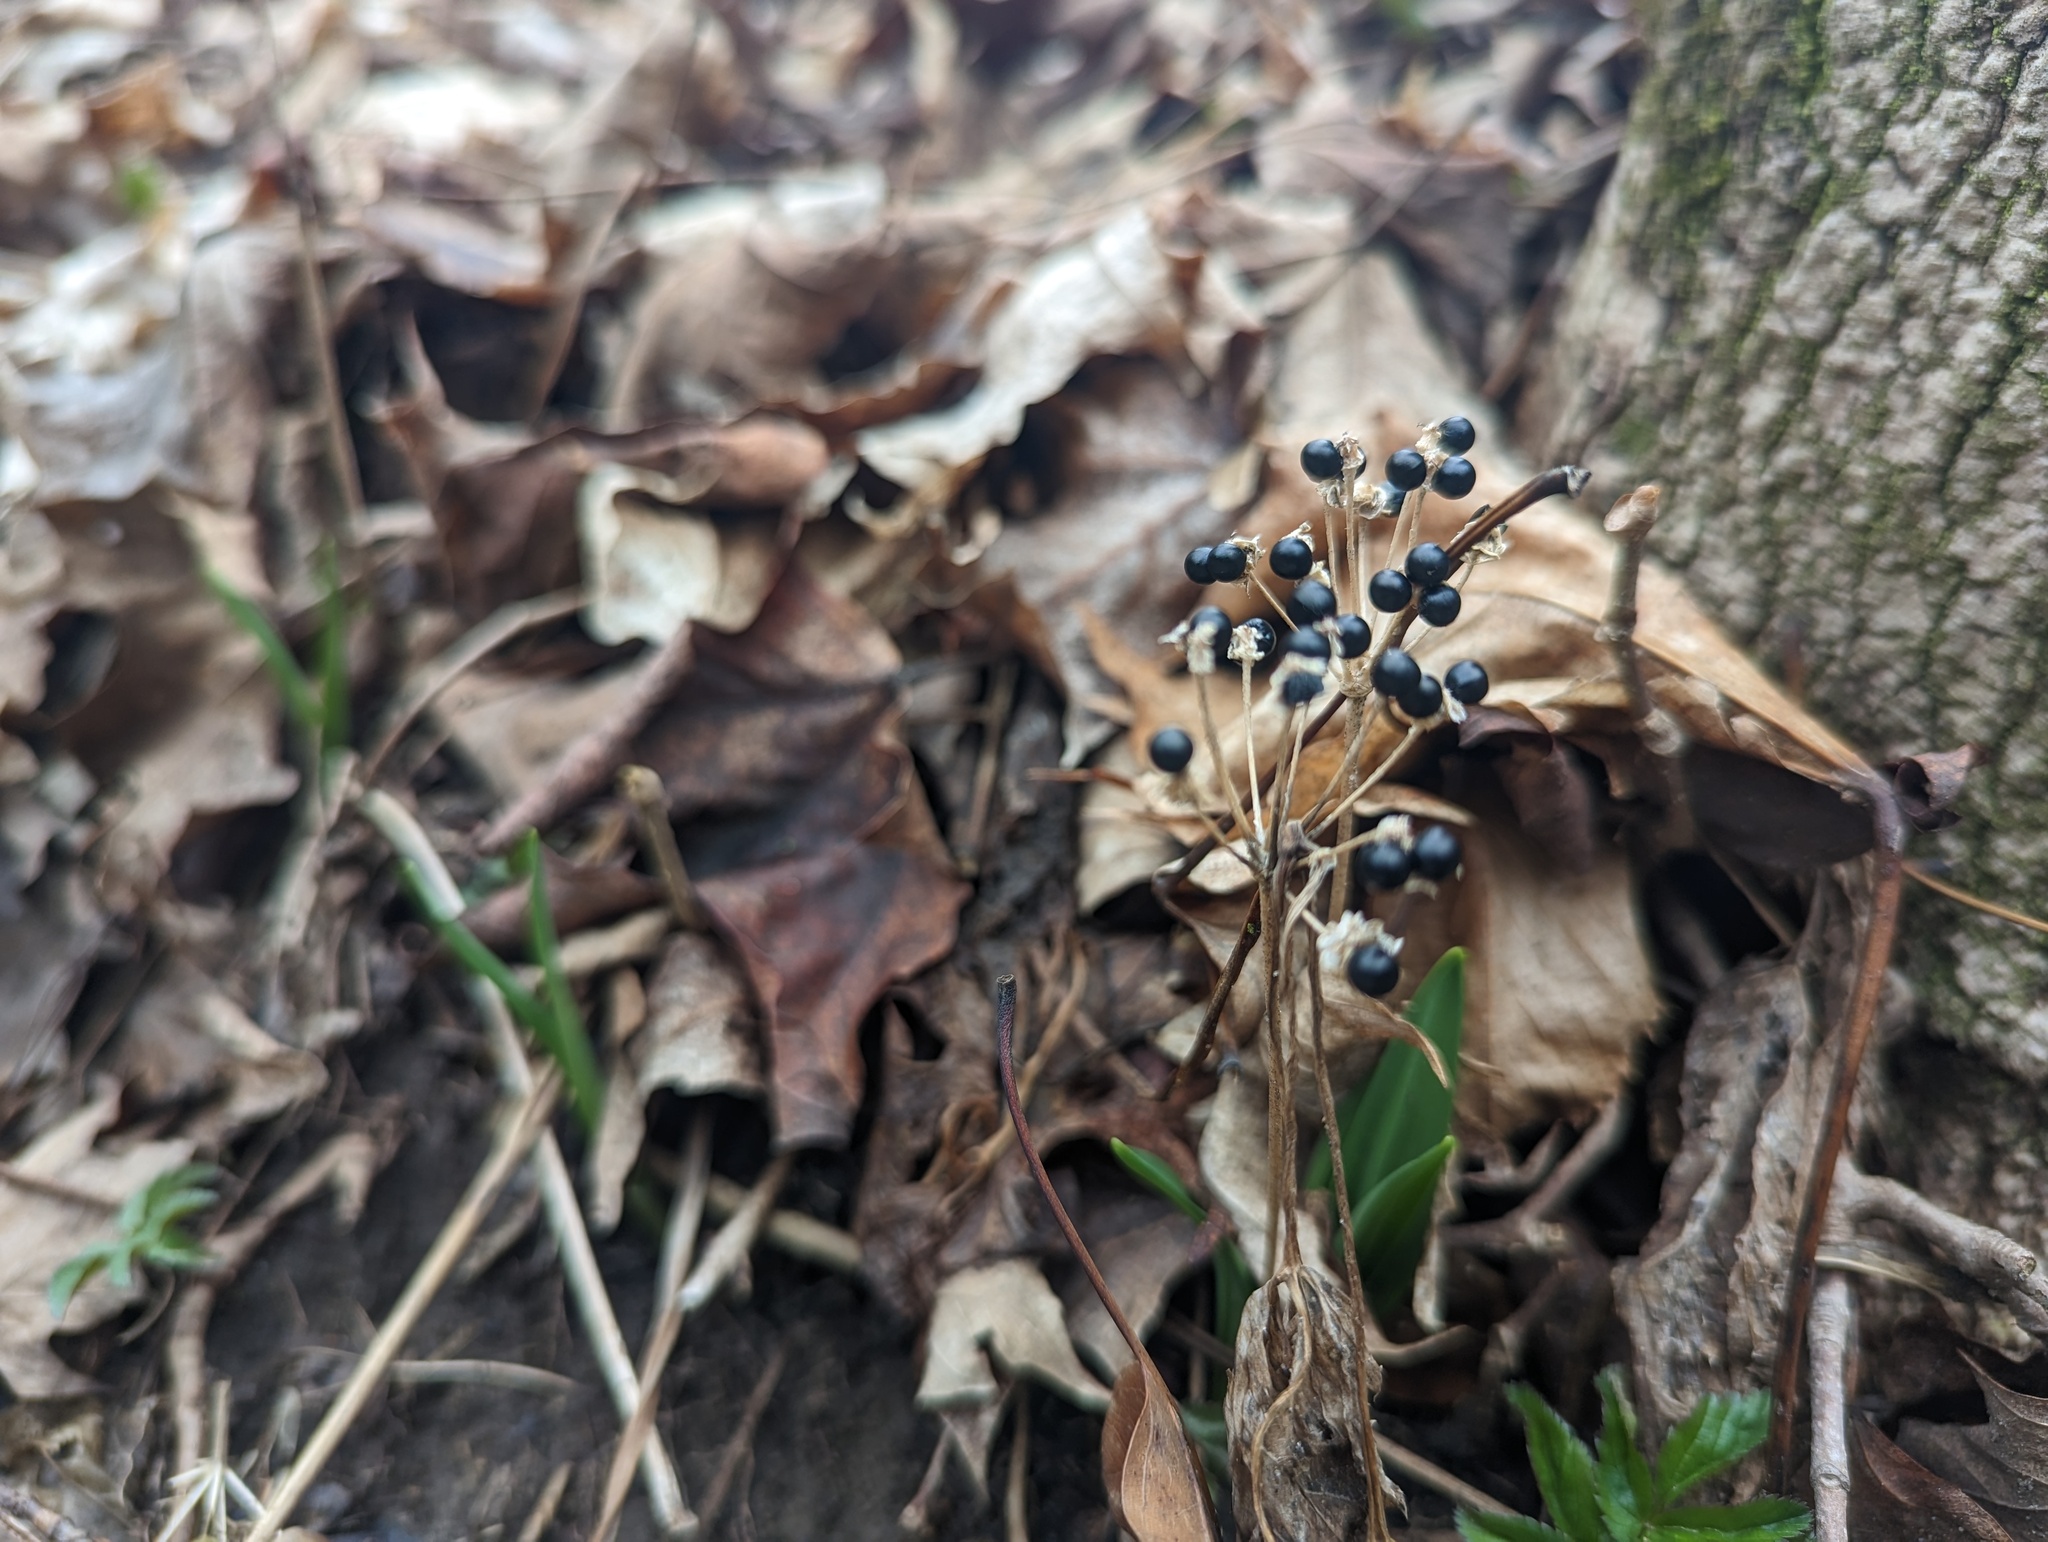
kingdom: Plantae
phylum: Tracheophyta
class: Liliopsida
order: Asparagales
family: Amaryllidaceae
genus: Allium
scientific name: Allium tricoccum
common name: Ramp
